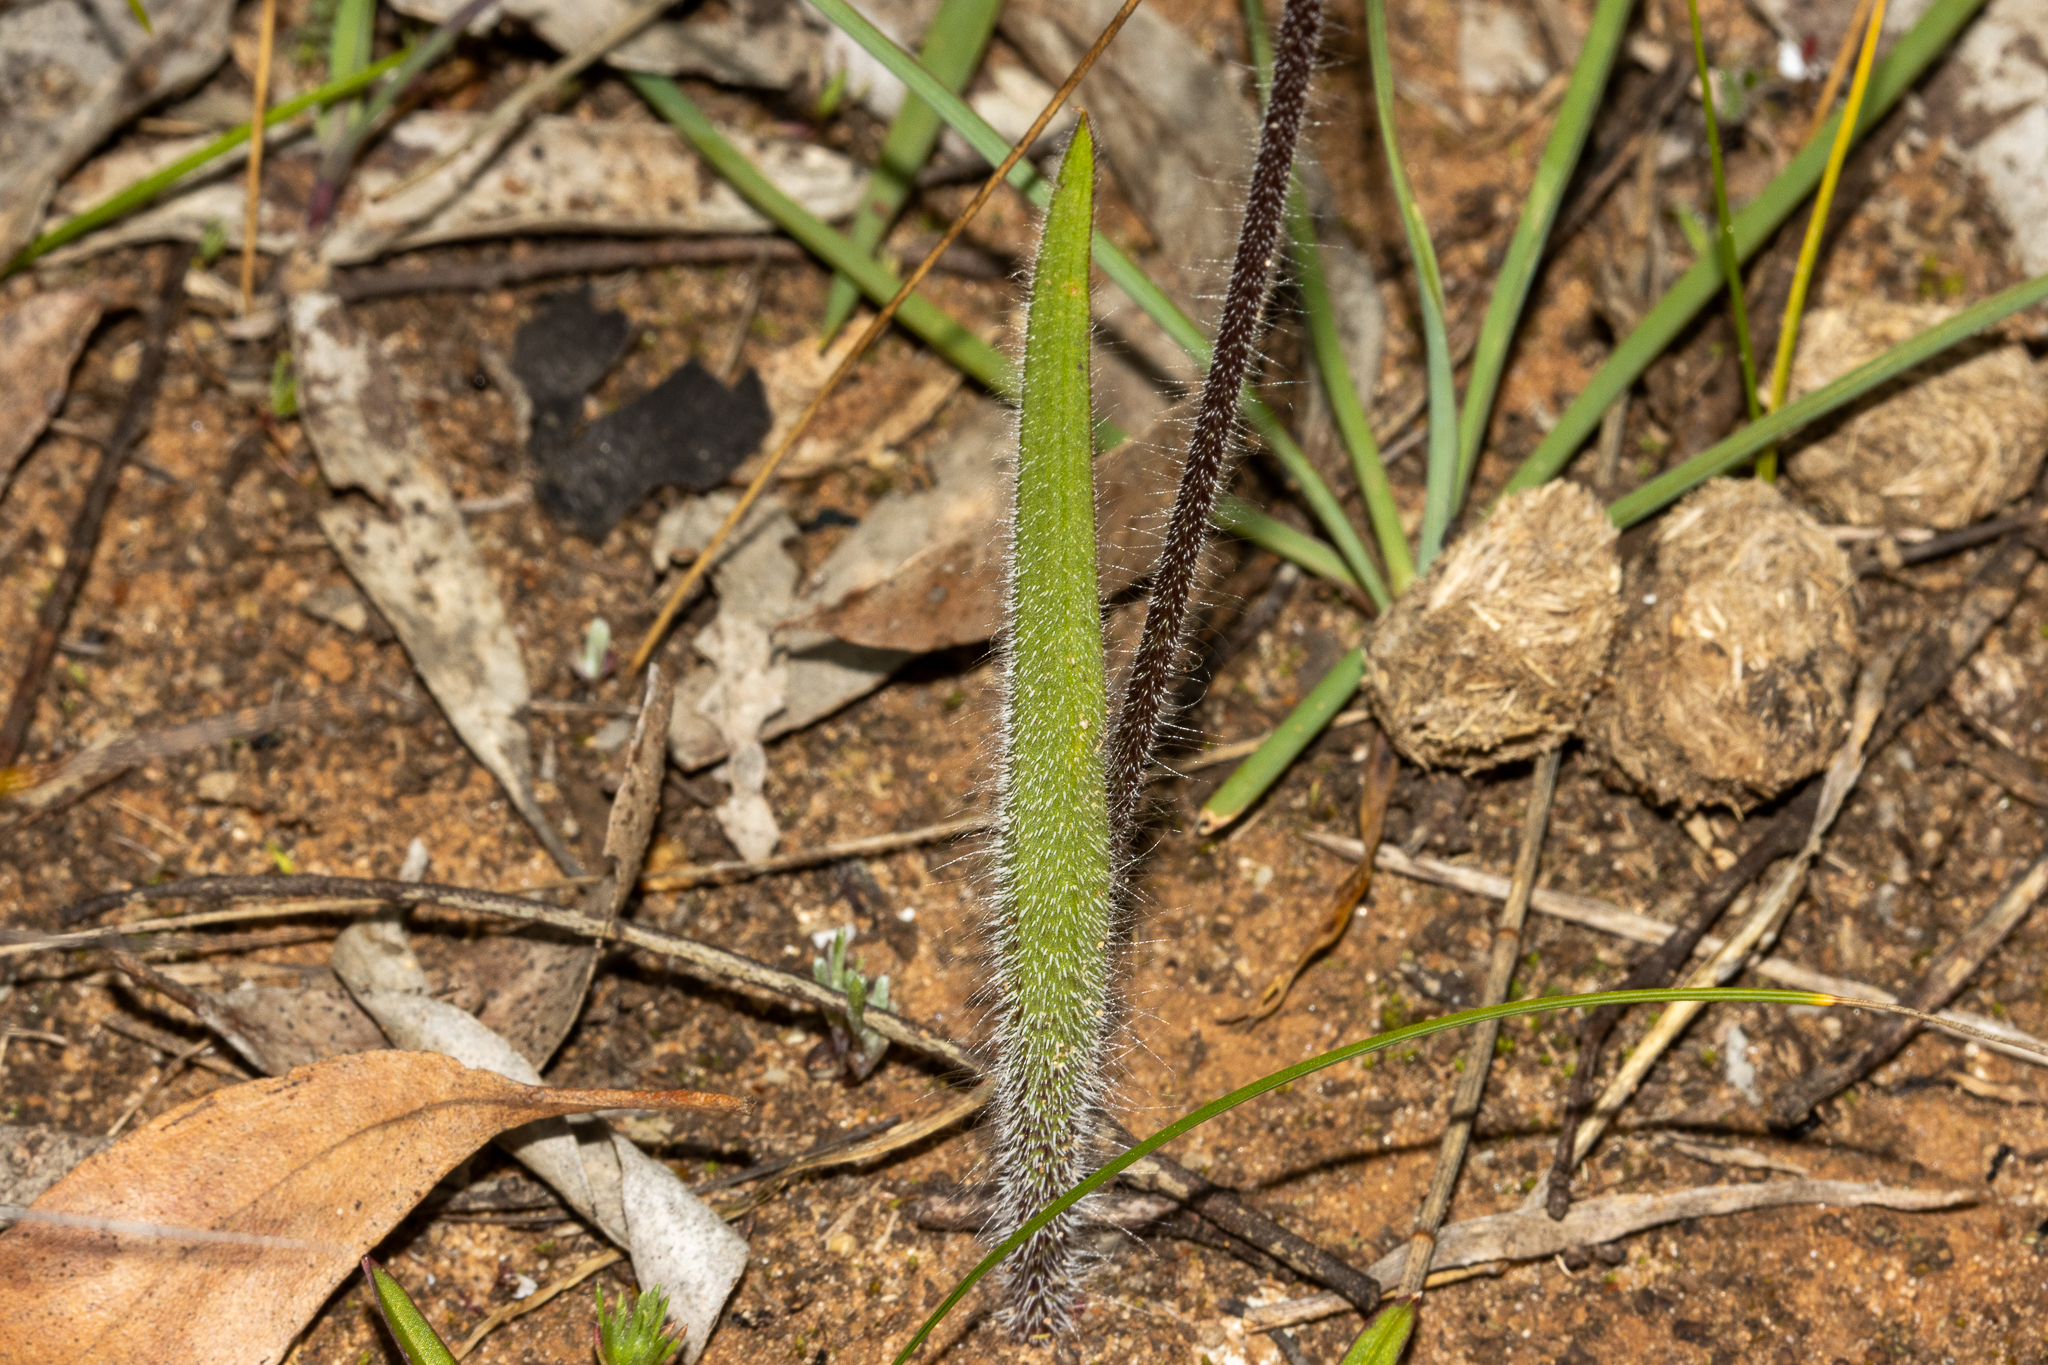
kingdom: Plantae
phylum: Tracheophyta
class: Liliopsida
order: Asparagales
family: Orchidaceae
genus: Caladenia
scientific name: Caladenia brumalis
